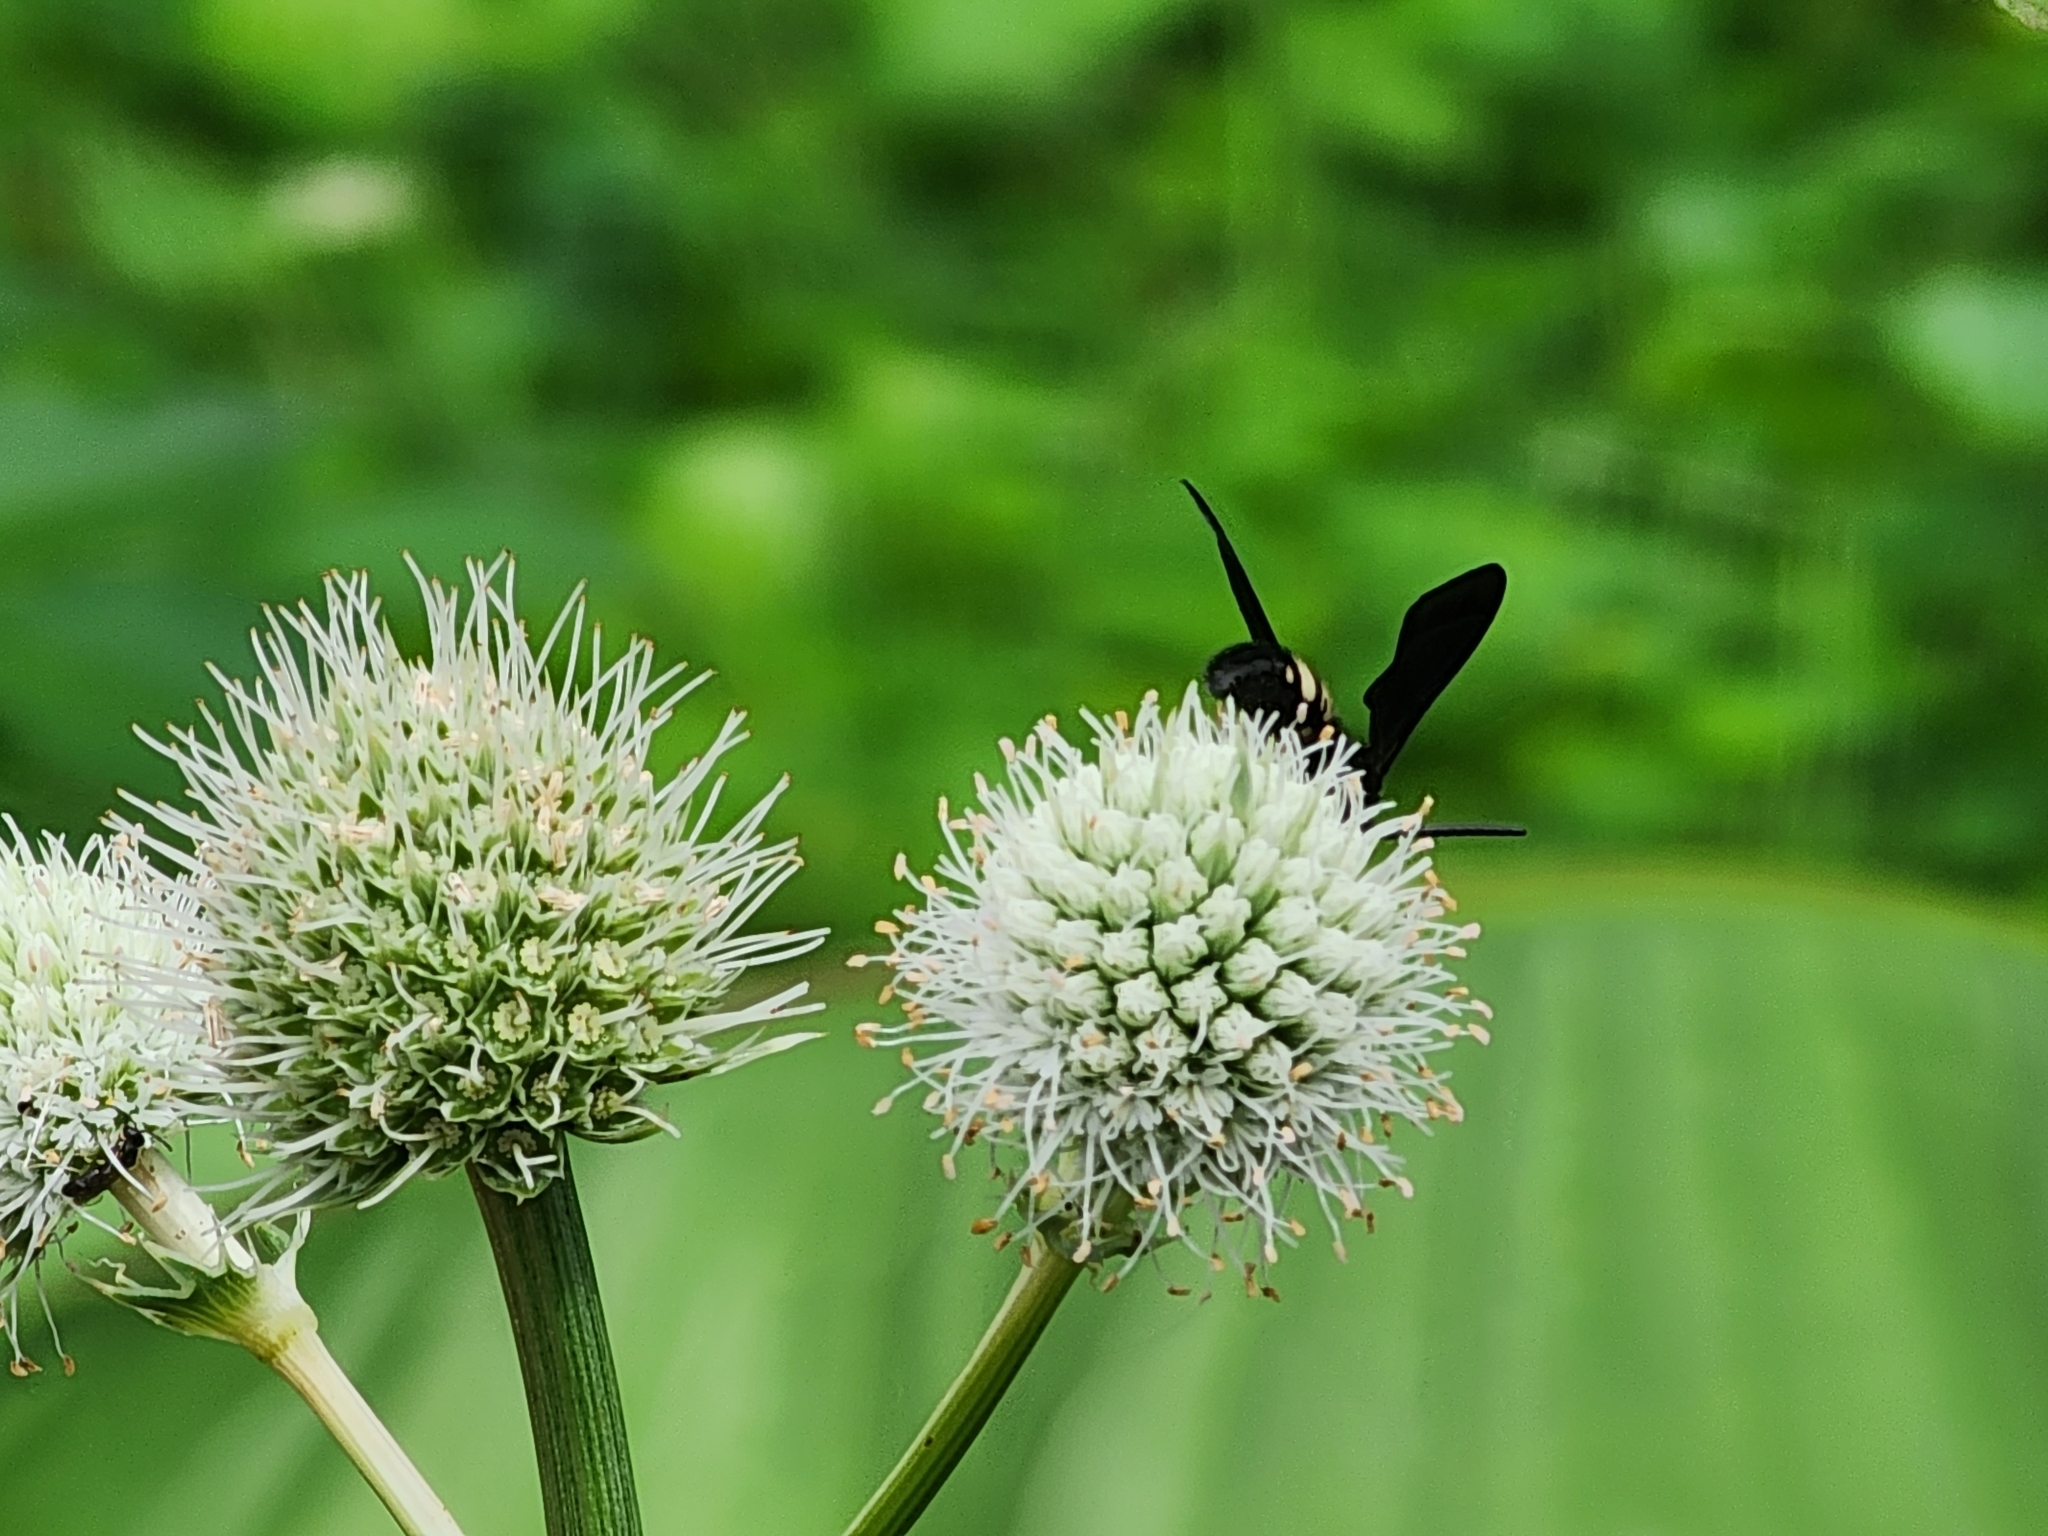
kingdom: Animalia
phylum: Arthropoda
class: Insecta
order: Hymenoptera
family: Scoliidae
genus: Scolia
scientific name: Scolia bicincta
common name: Double-banded scoliid wasp
